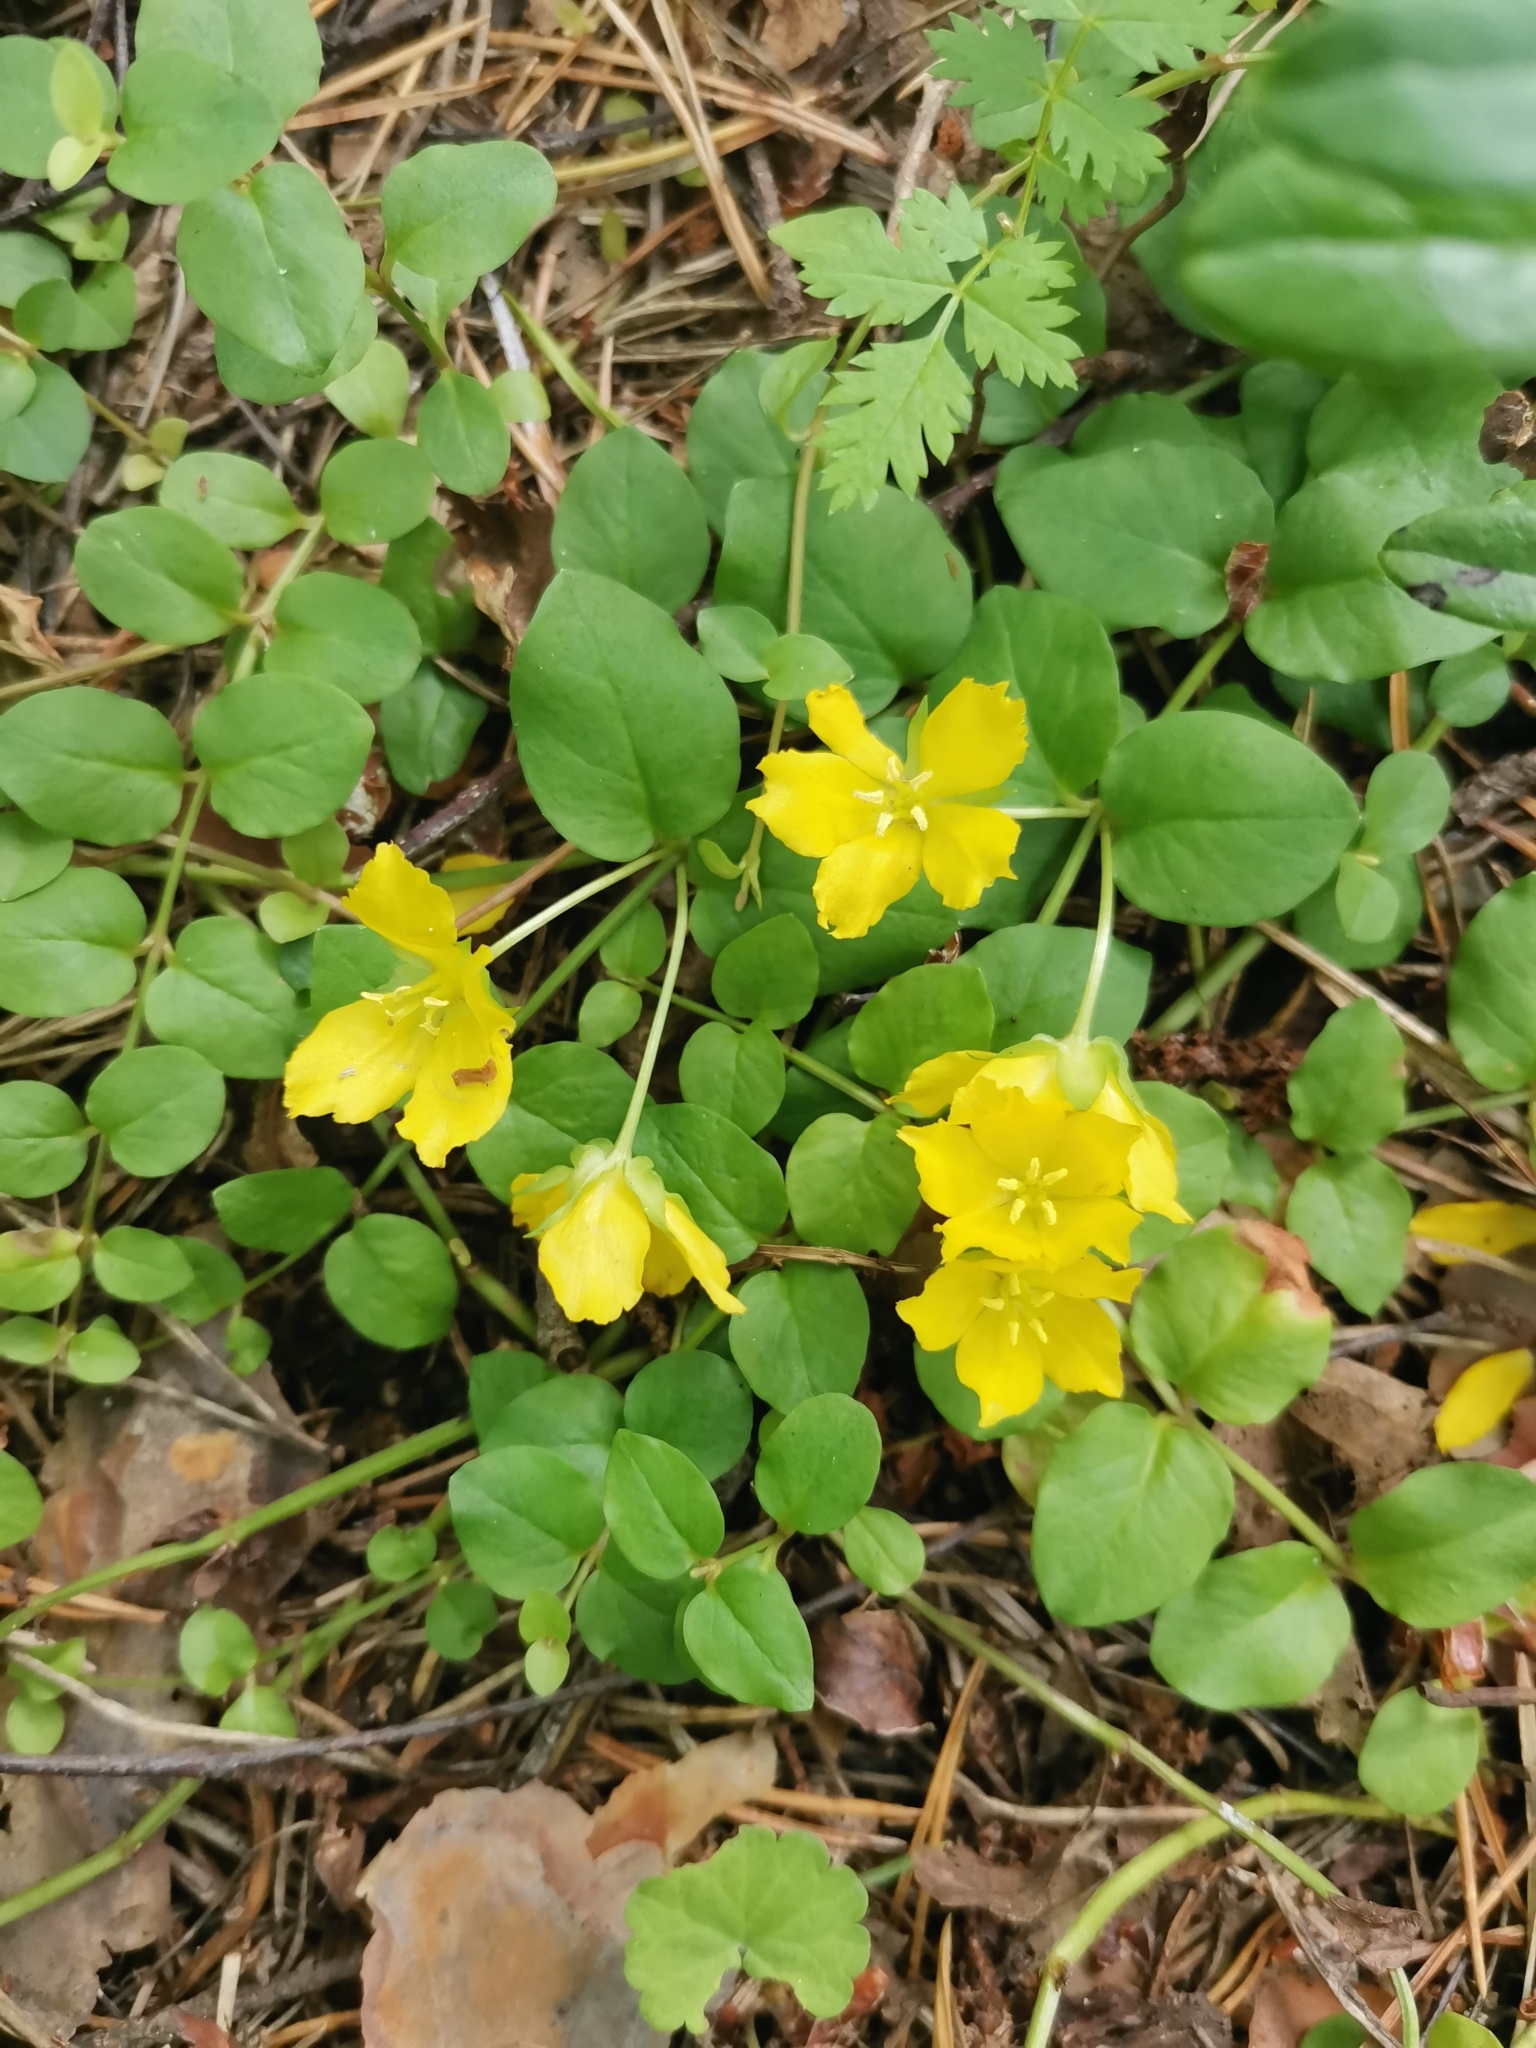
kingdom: Plantae
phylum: Tracheophyta
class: Magnoliopsida
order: Ericales
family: Primulaceae
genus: Lysimachia
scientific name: Lysimachia nummularia
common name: Moneywort
